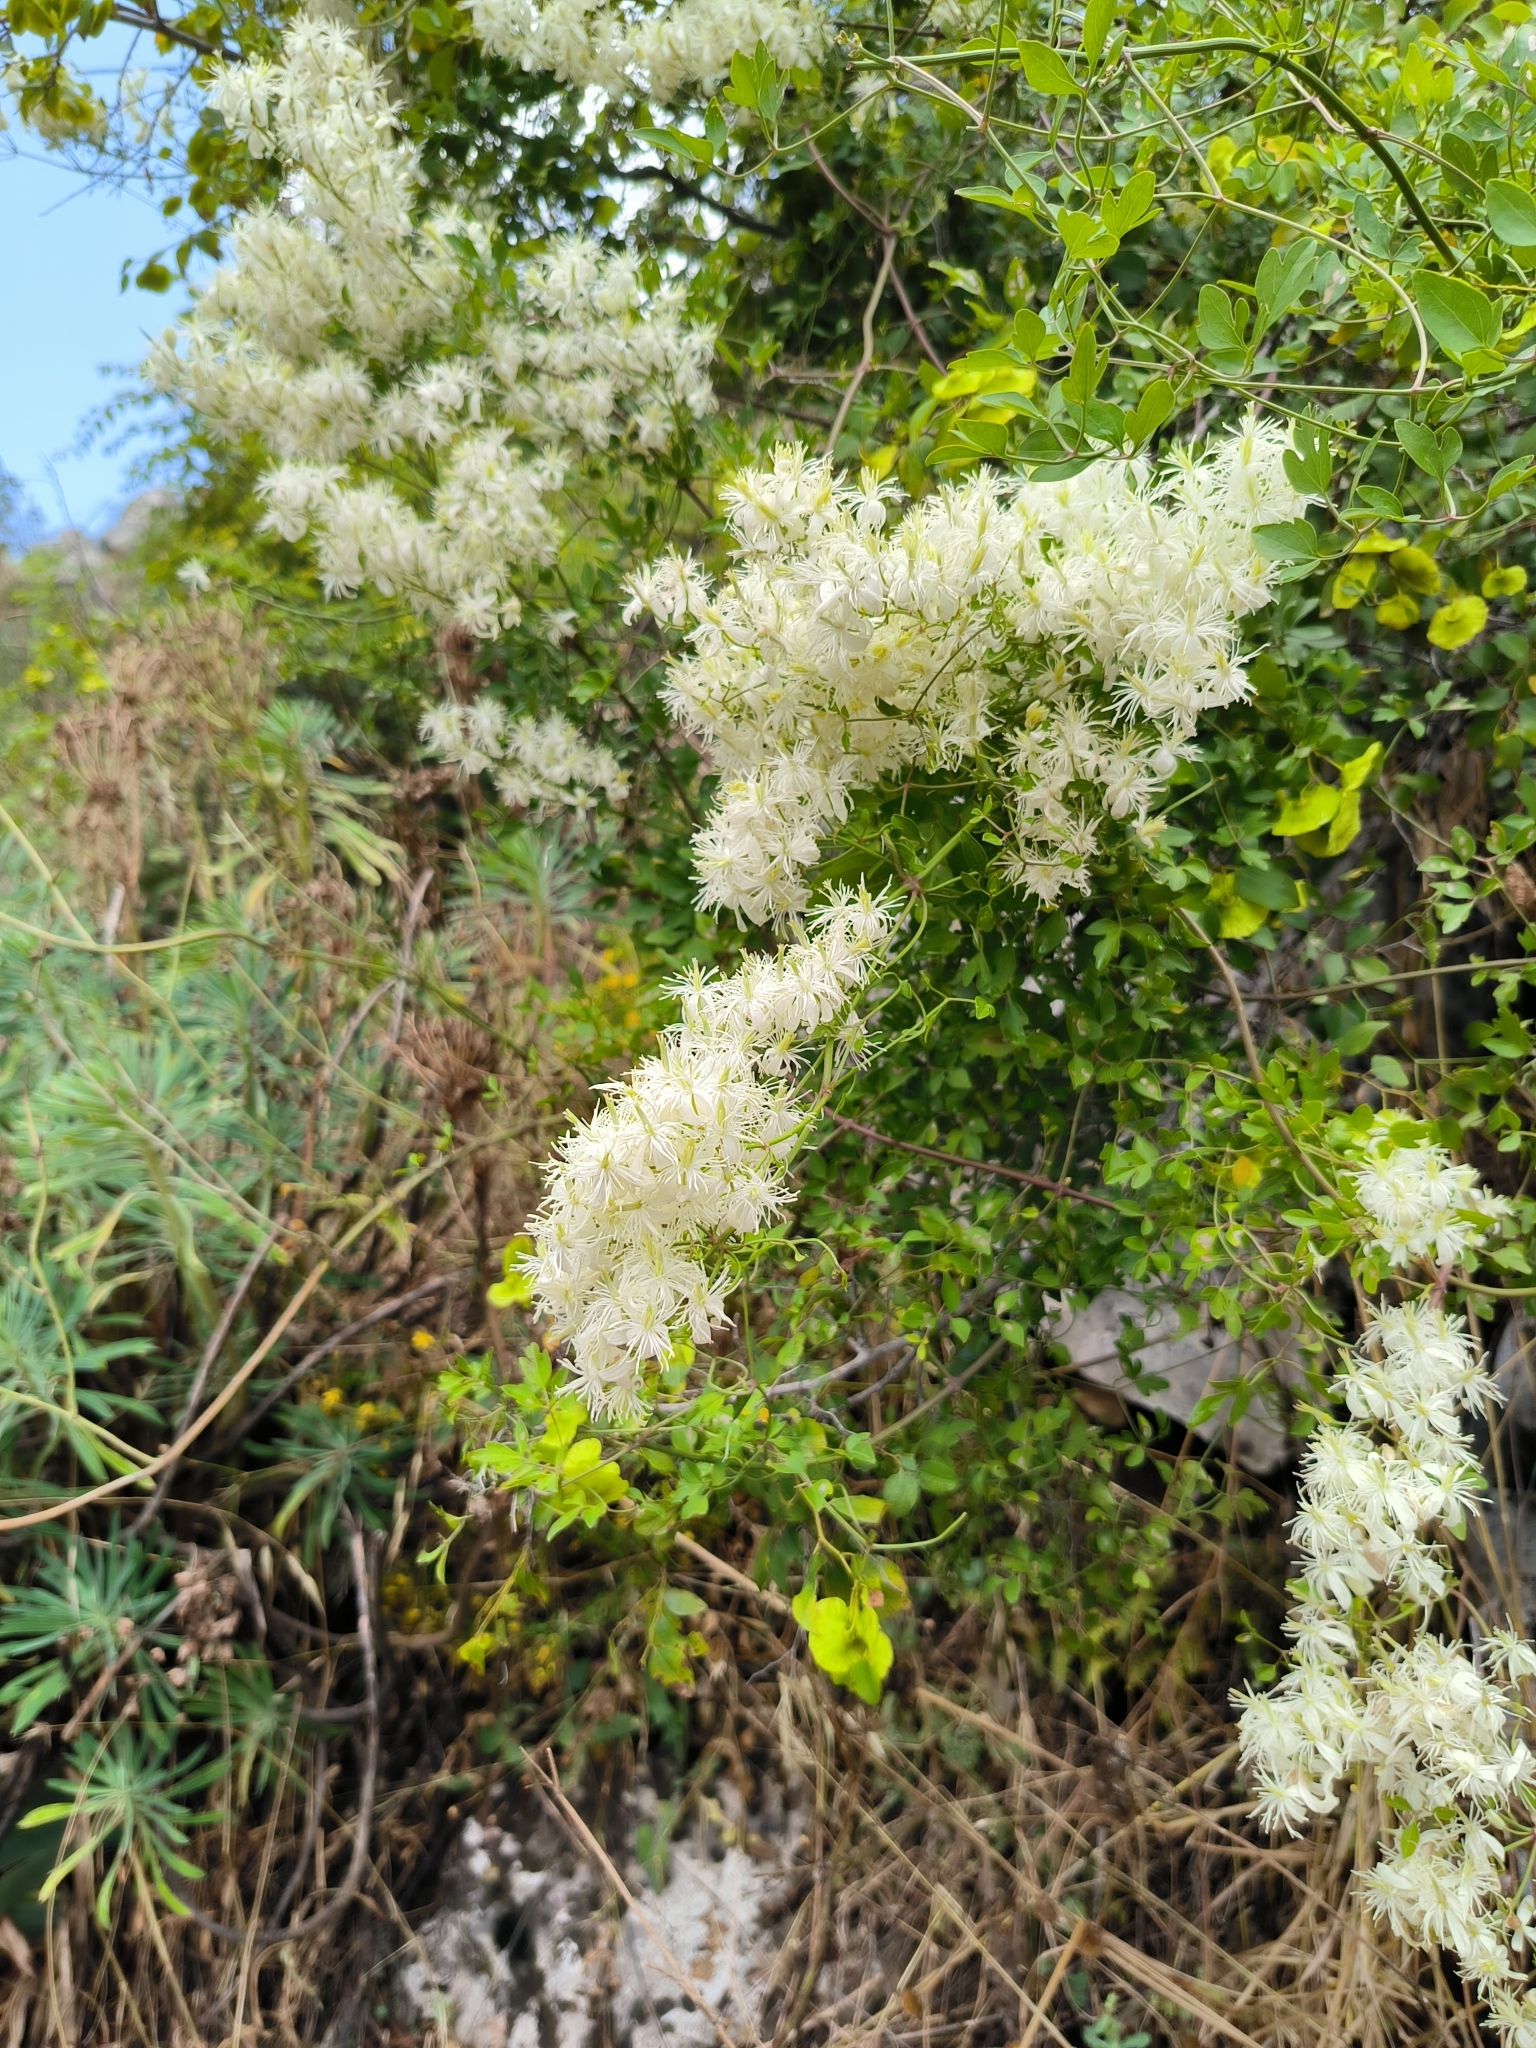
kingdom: Plantae
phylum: Tracheophyta
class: Magnoliopsida
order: Ranunculales
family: Ranunculaceae
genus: Clematis
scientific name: Clematis flammula
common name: Virgin's-bower
